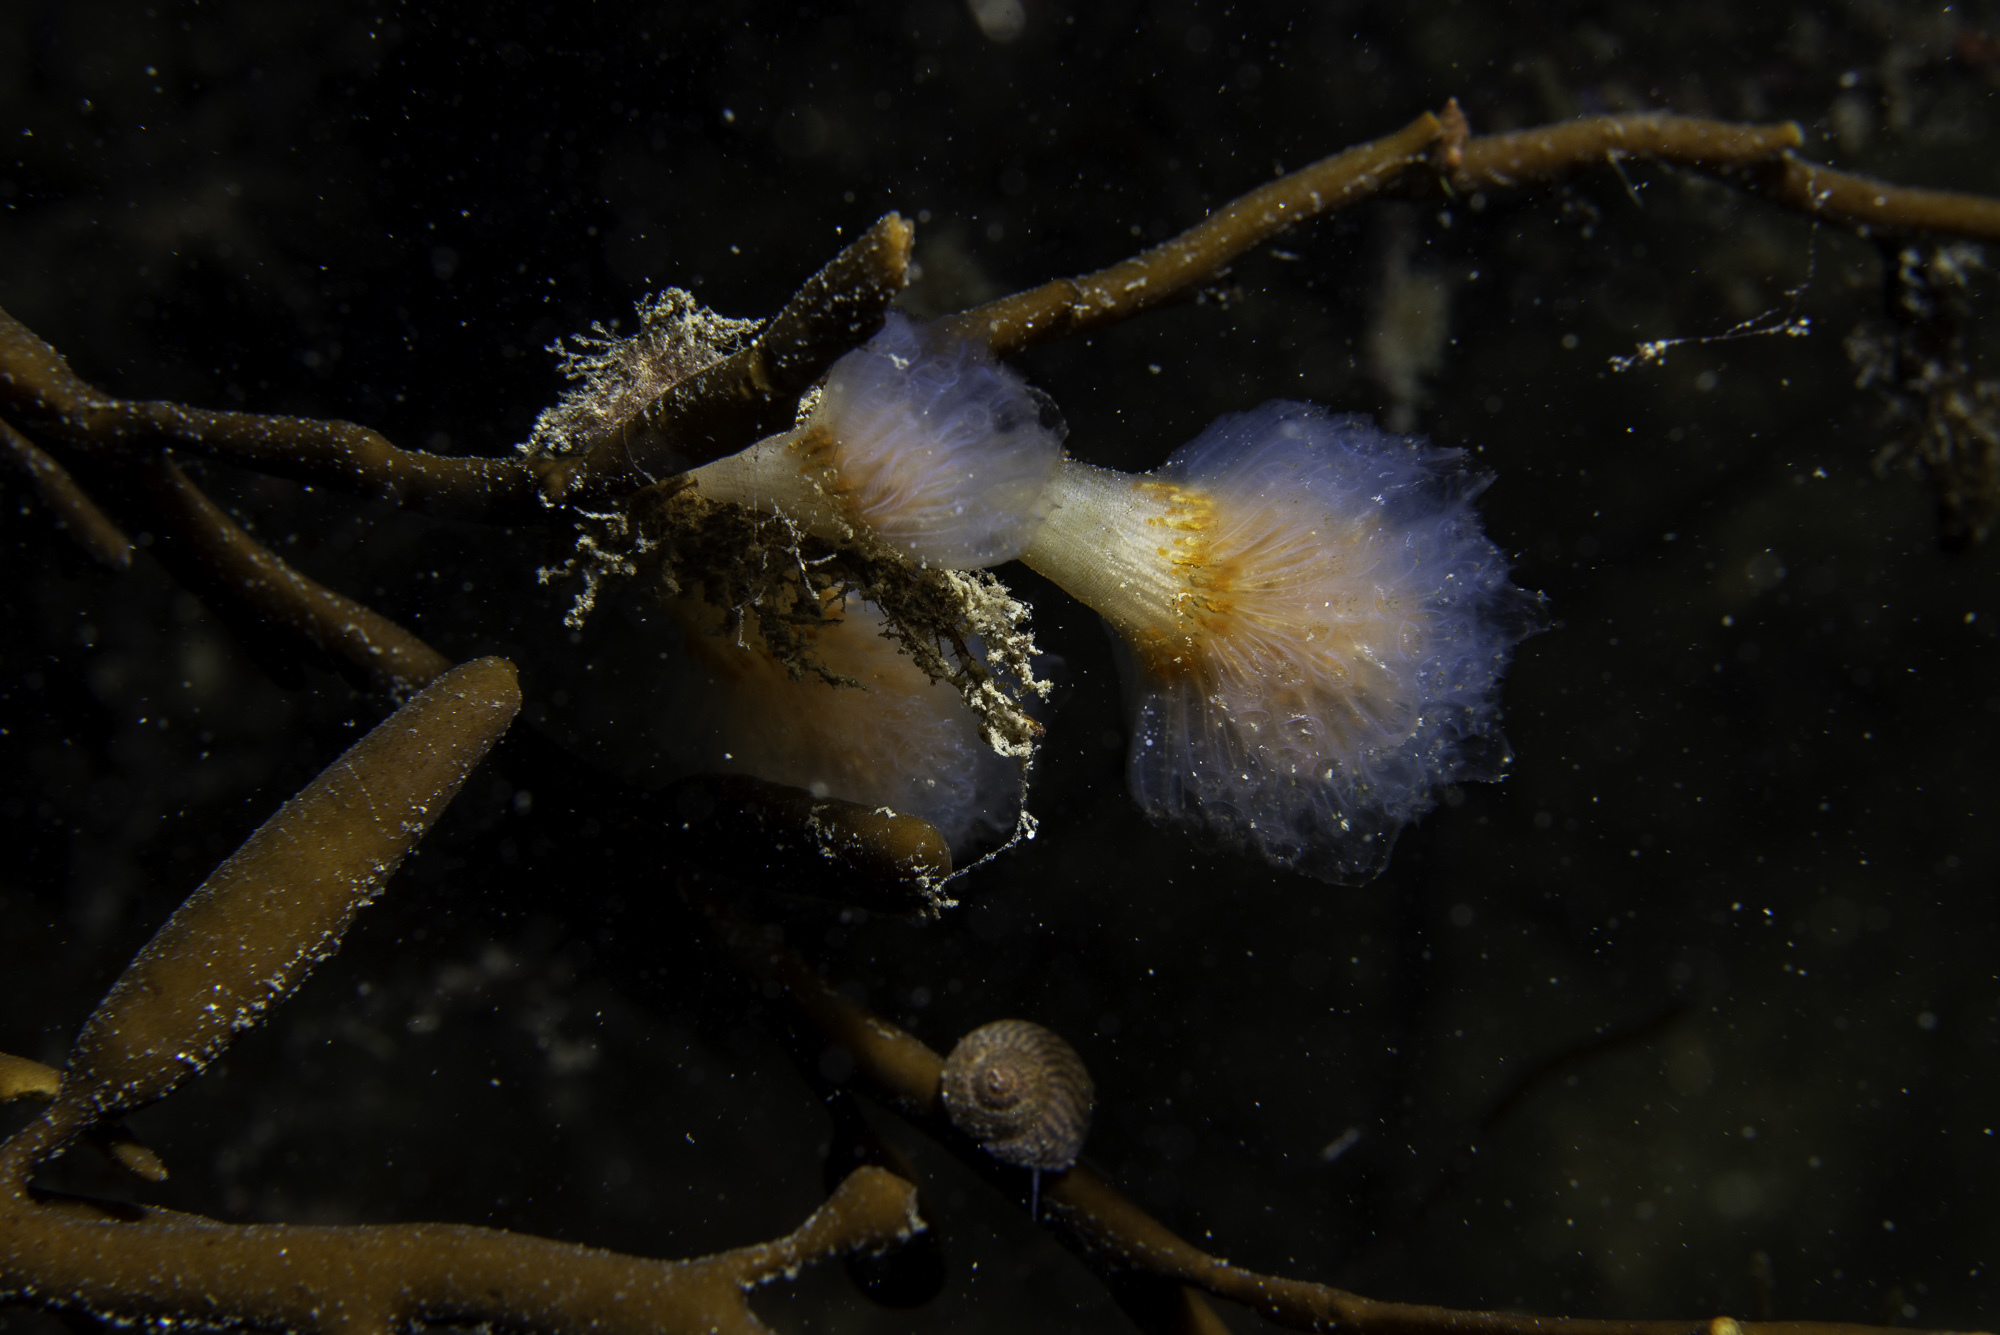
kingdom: Animalia
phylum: Chordata
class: Ascidiacea
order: Aplousobranchia
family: Polyclinidae
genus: Aplidium
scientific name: Aplidium punctum
